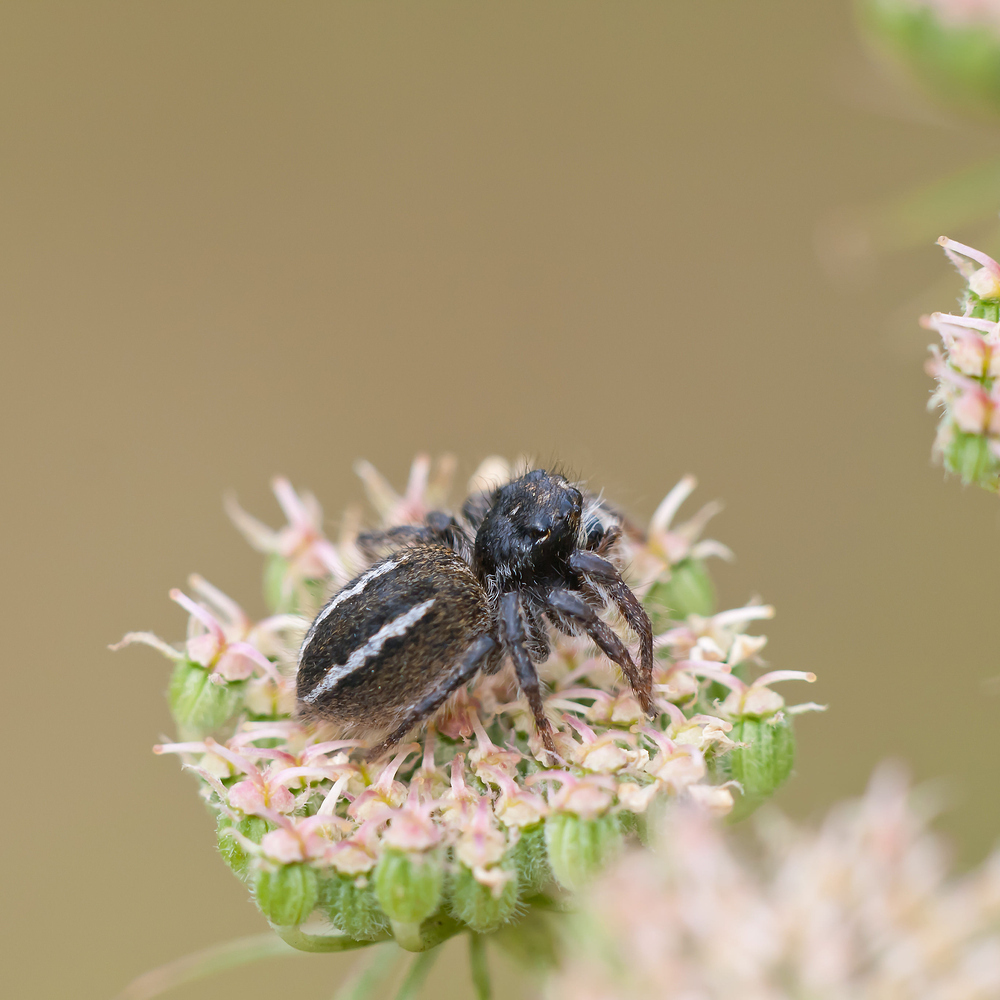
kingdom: Animalia
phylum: Arthropoda
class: Arachnida
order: Araneae
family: Salticidae
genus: Philaeus
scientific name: Philaeus chrysops
